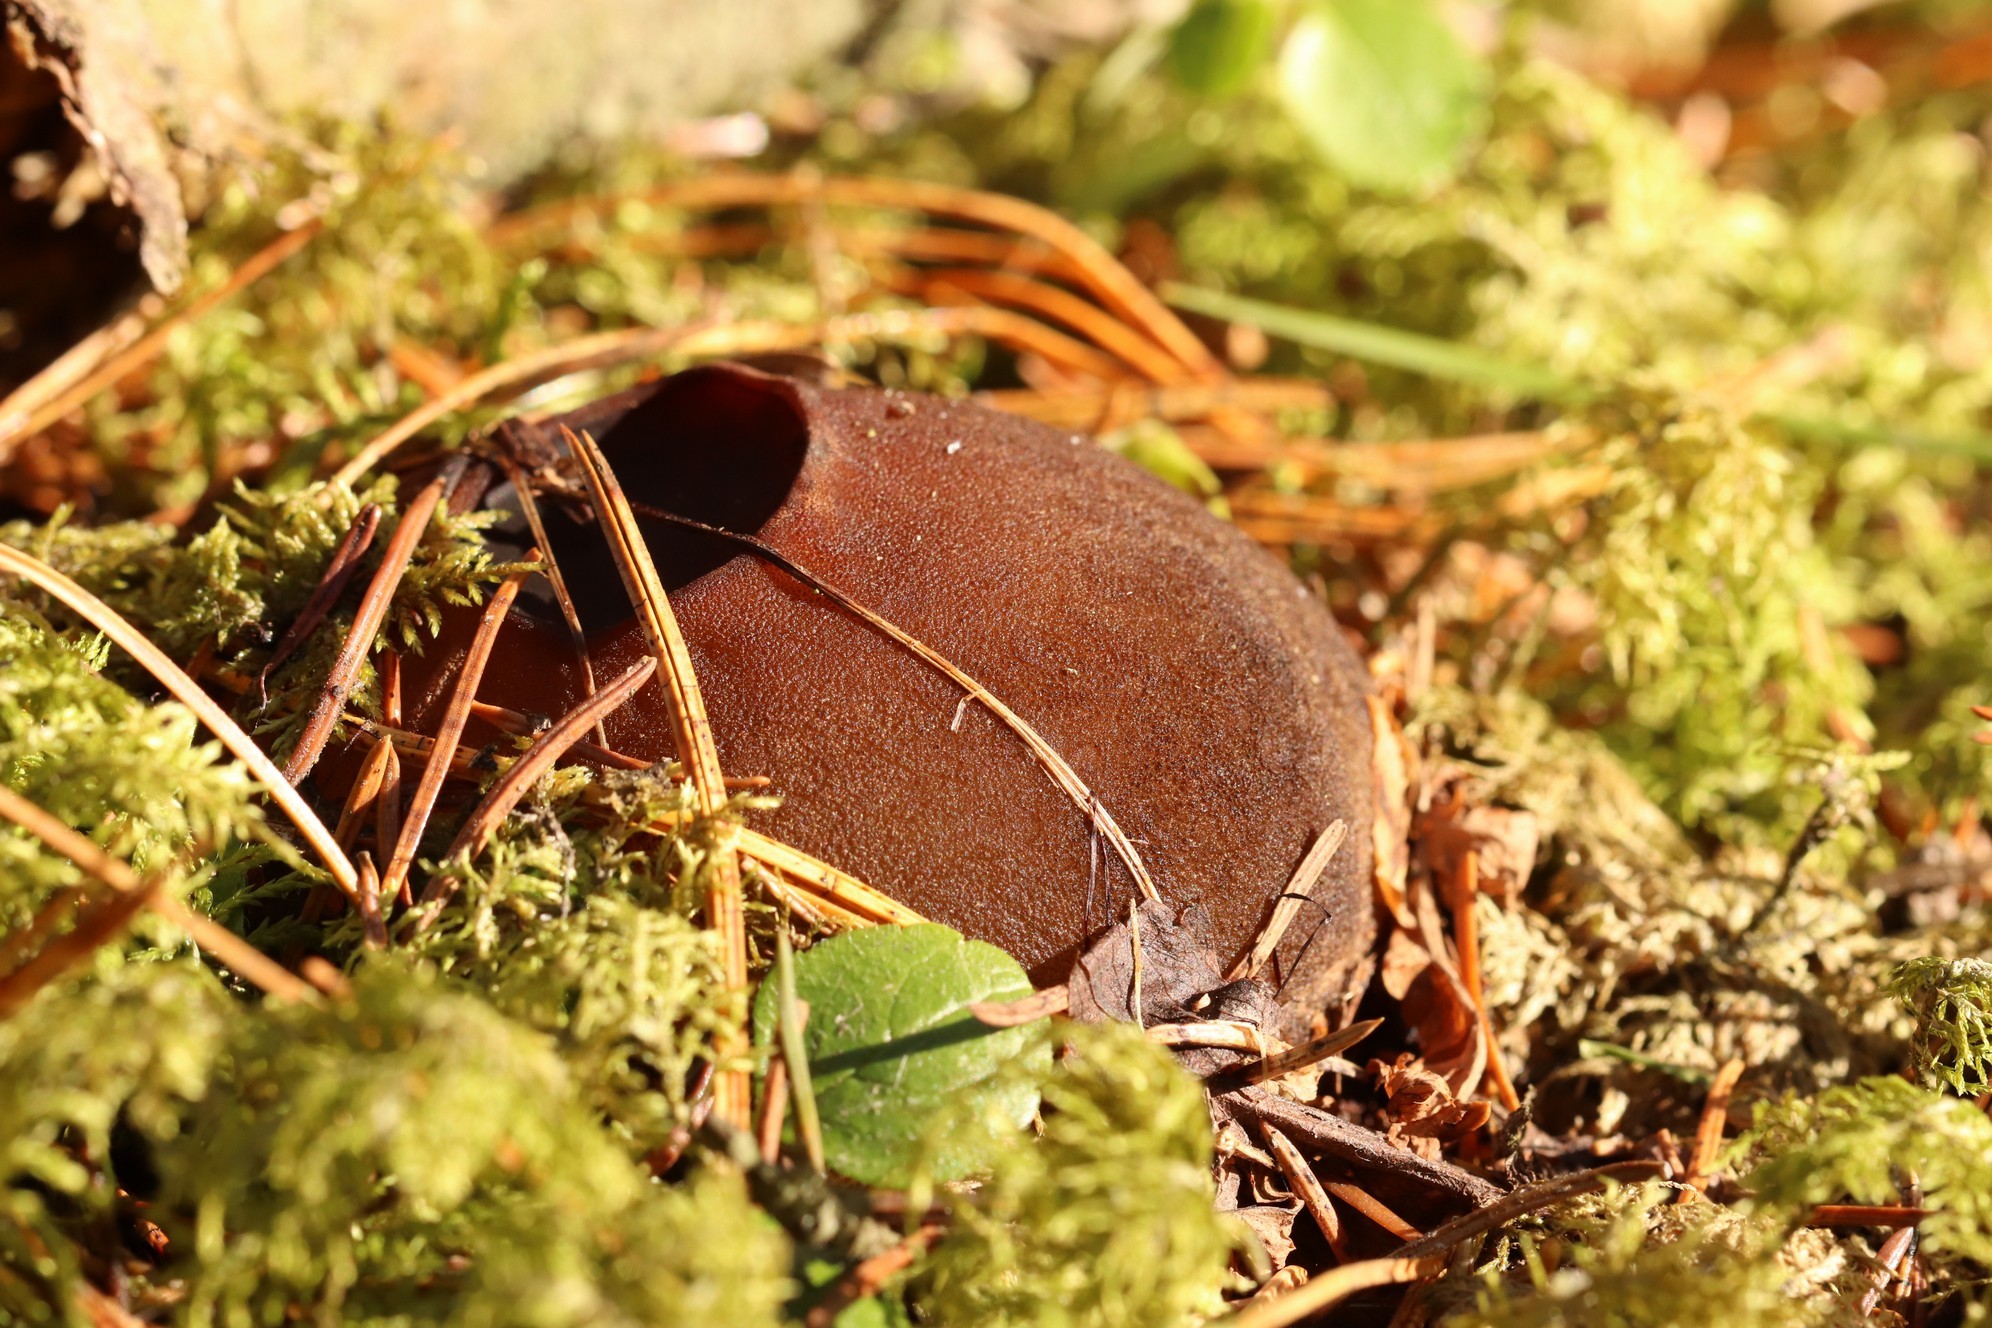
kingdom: Fungi
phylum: Ascomycota
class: Pezizomycetes
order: Pezizales
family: Sarcosomataceae
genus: Sarcosoma
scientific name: Sarcosoma globosum
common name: Charred-pancake cup
